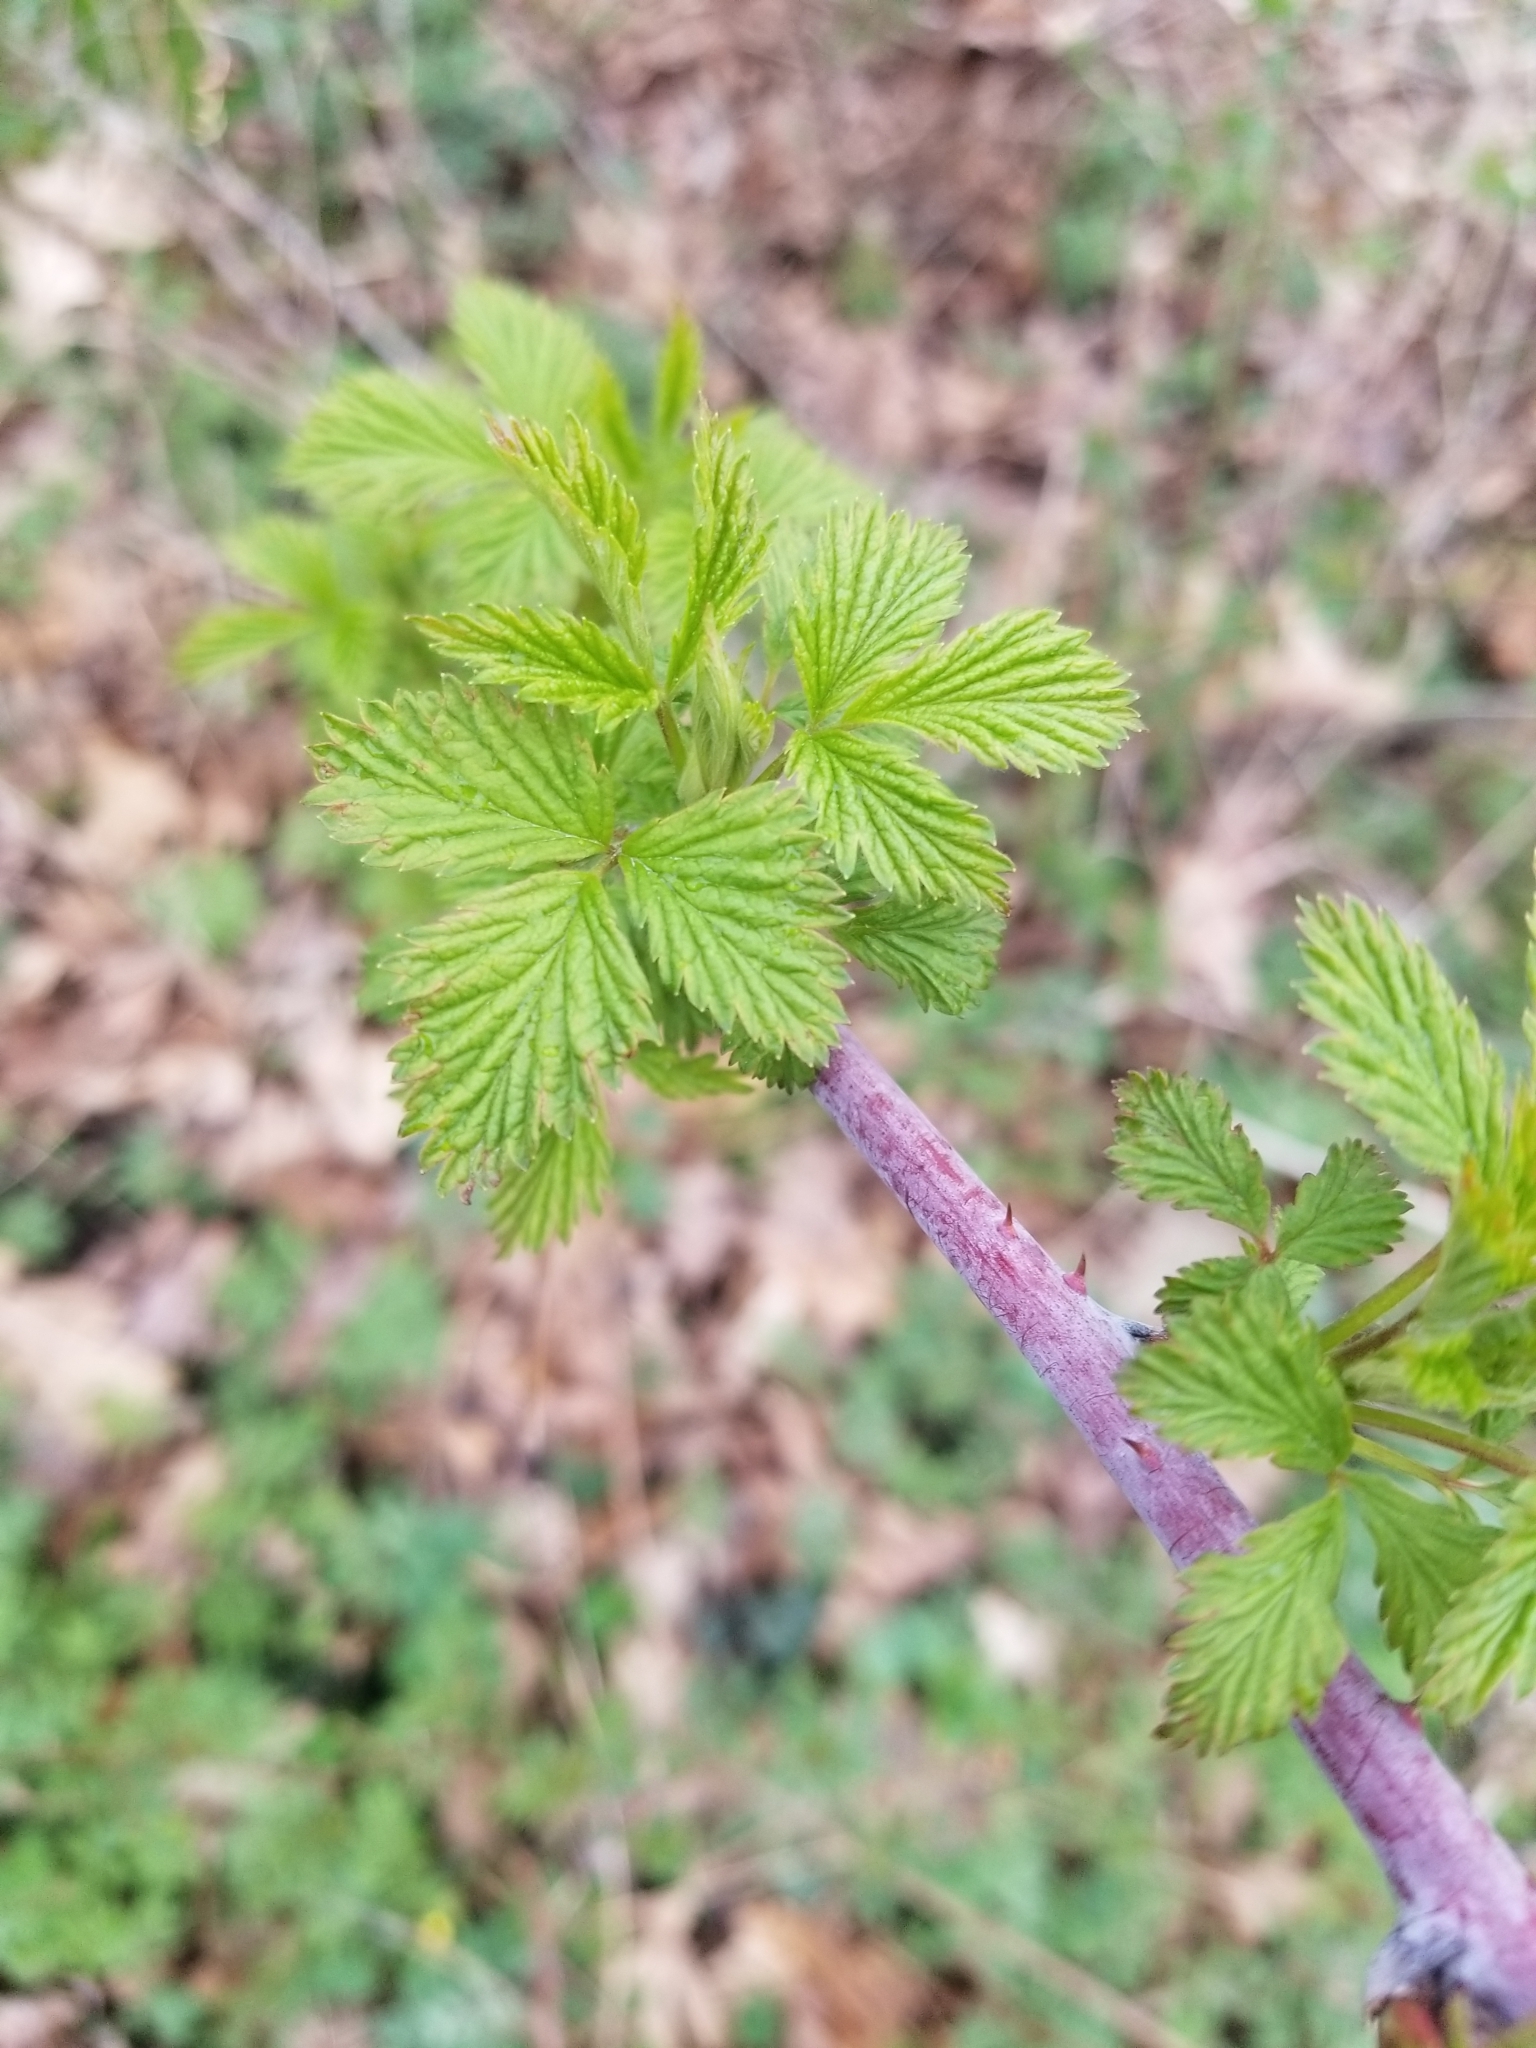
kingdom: Plantae
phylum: Tracheophyta
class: Magnoliopsida
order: Rosales
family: Rosaceae
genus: Rubus
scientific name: Rubus occidentalis
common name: Black raspberry
